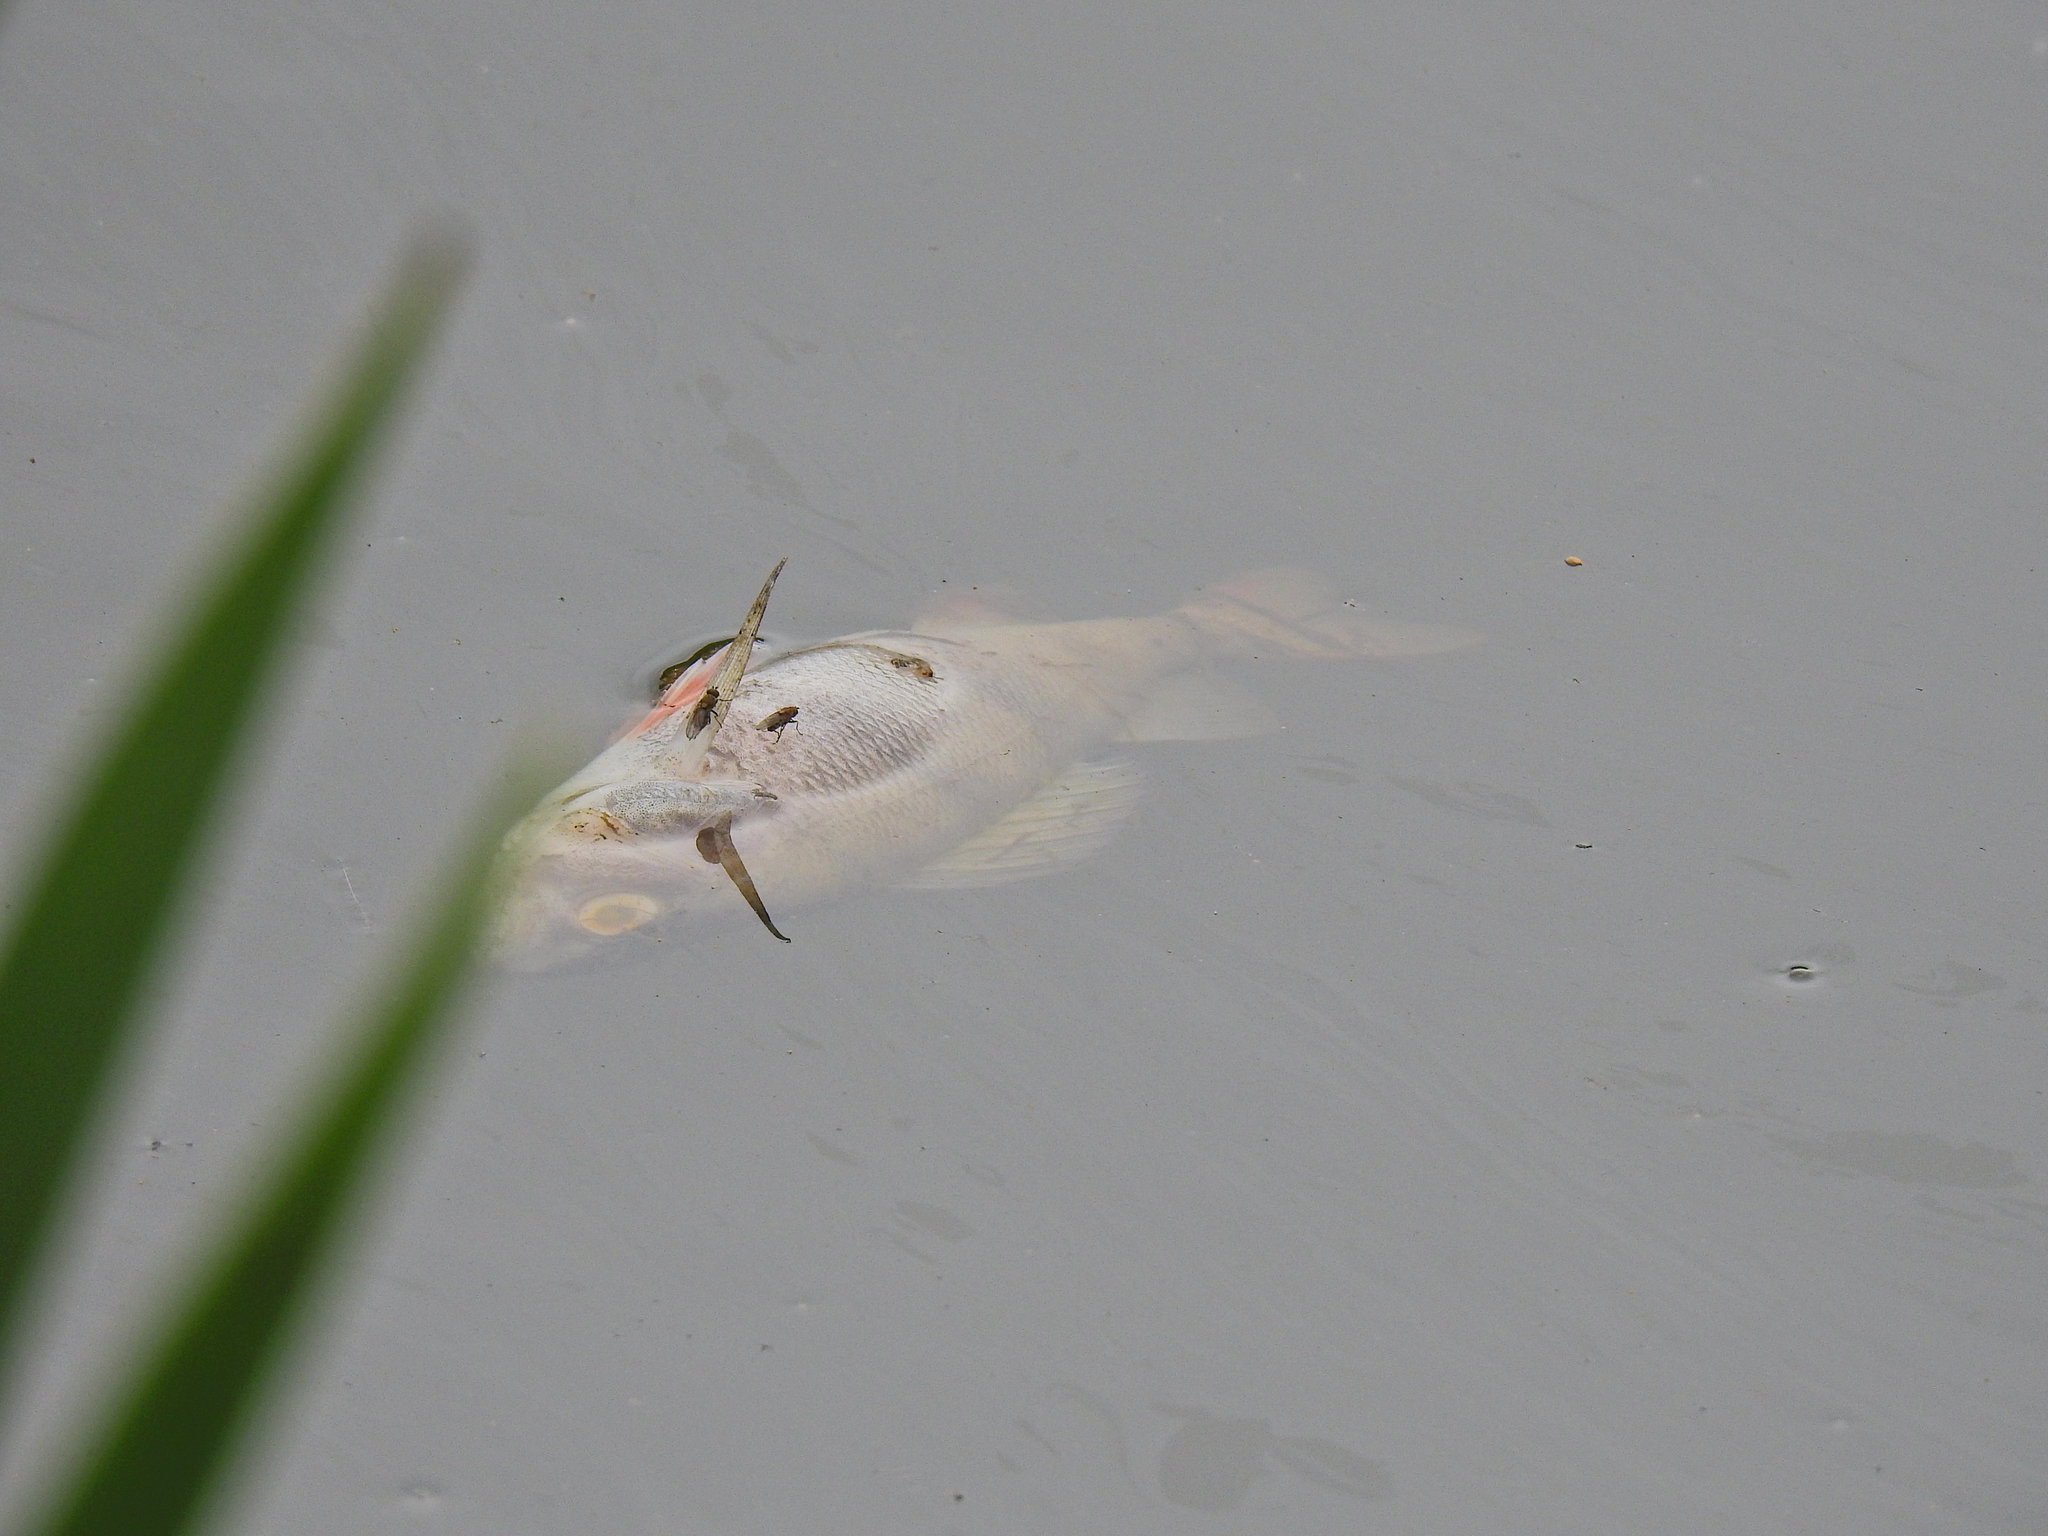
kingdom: Animalia
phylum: Chordata
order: Perciformes
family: Percidae
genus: Perca
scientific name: Perca fluviatilis
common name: Perch
